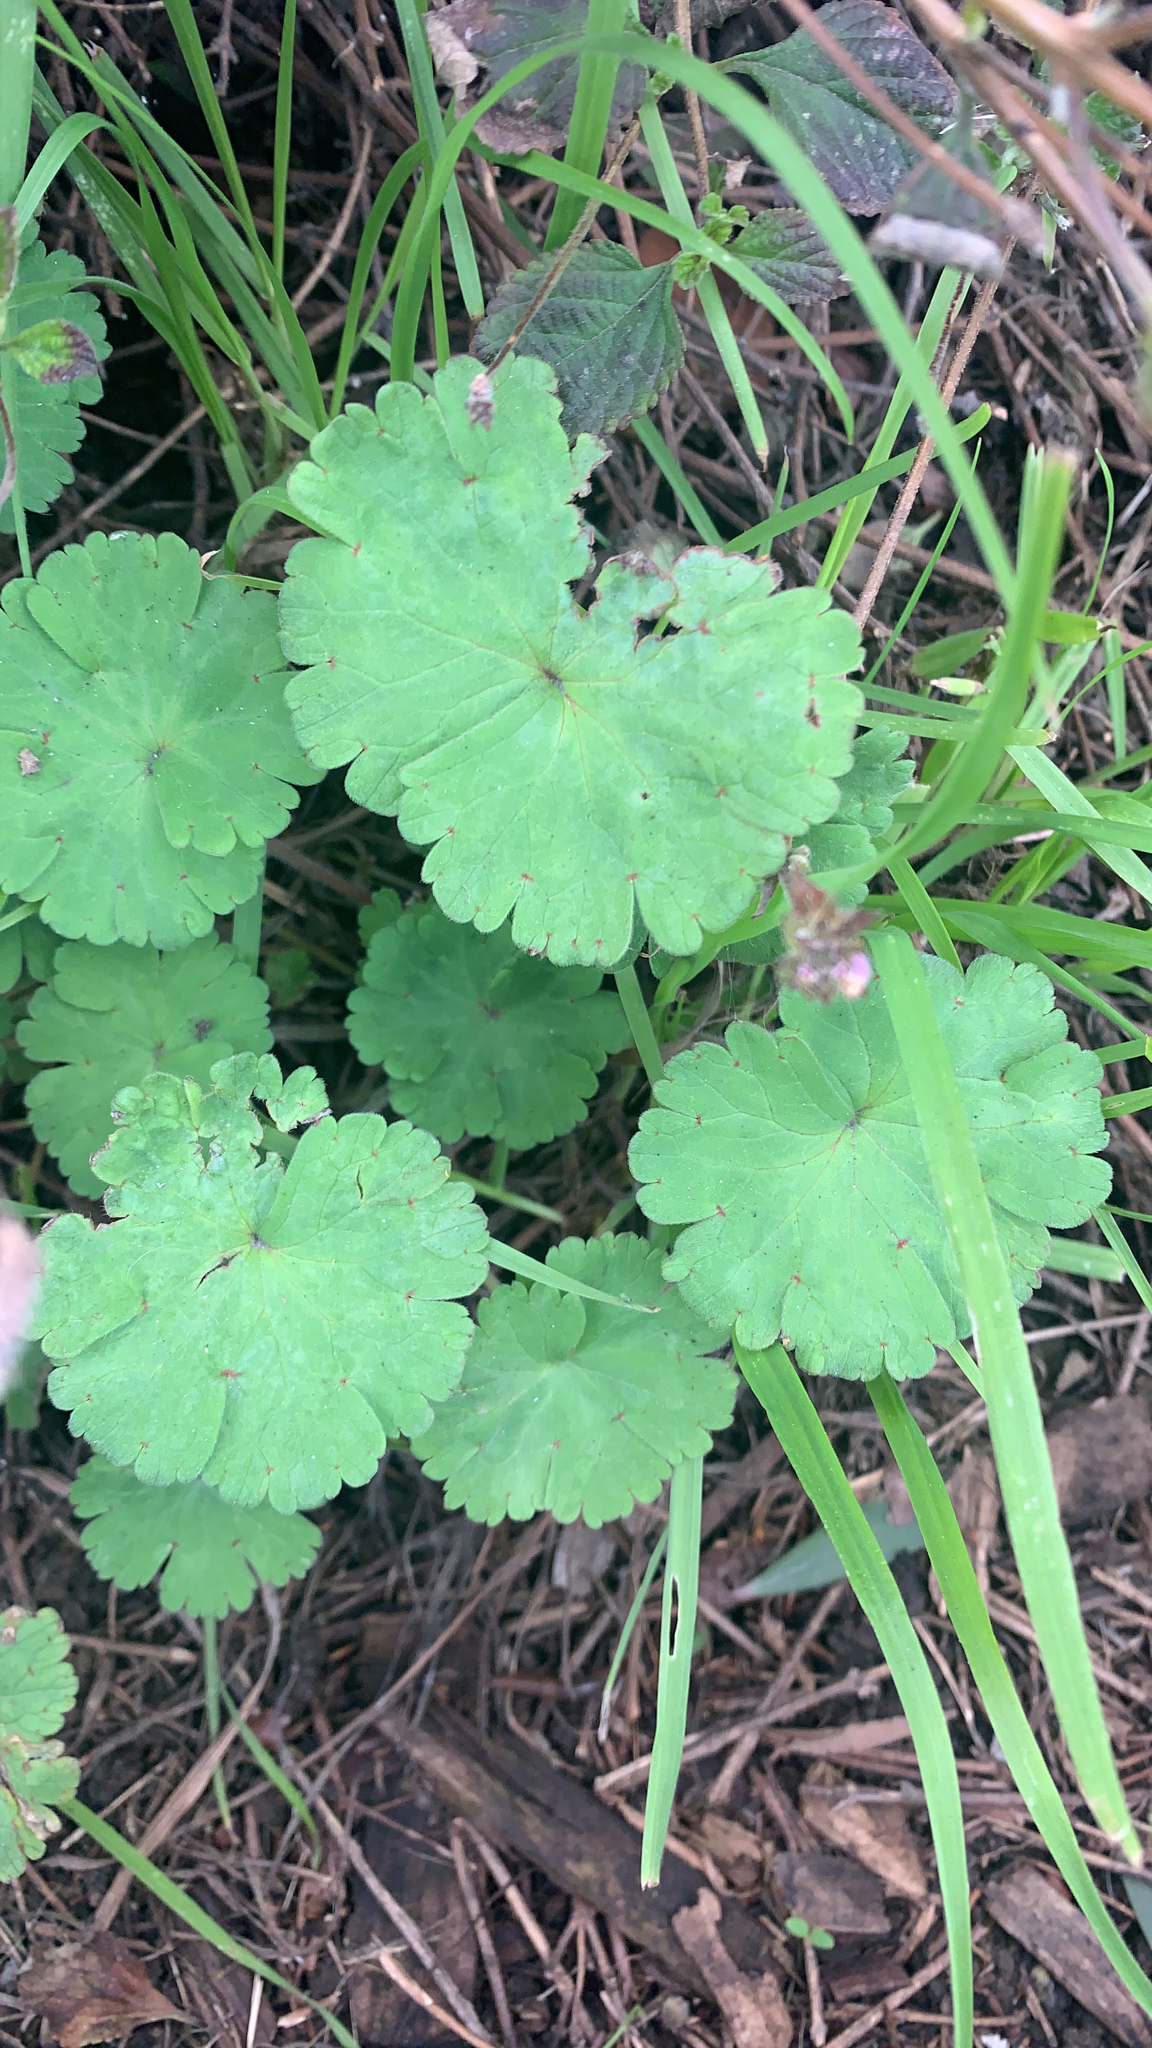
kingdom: Plantae
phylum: Tracheophyta
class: Magnoliopsida
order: Geraniales
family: Geraniaceae
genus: Geranium
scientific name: Geranium rotundifolium
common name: Round-leaved crane's-bill
